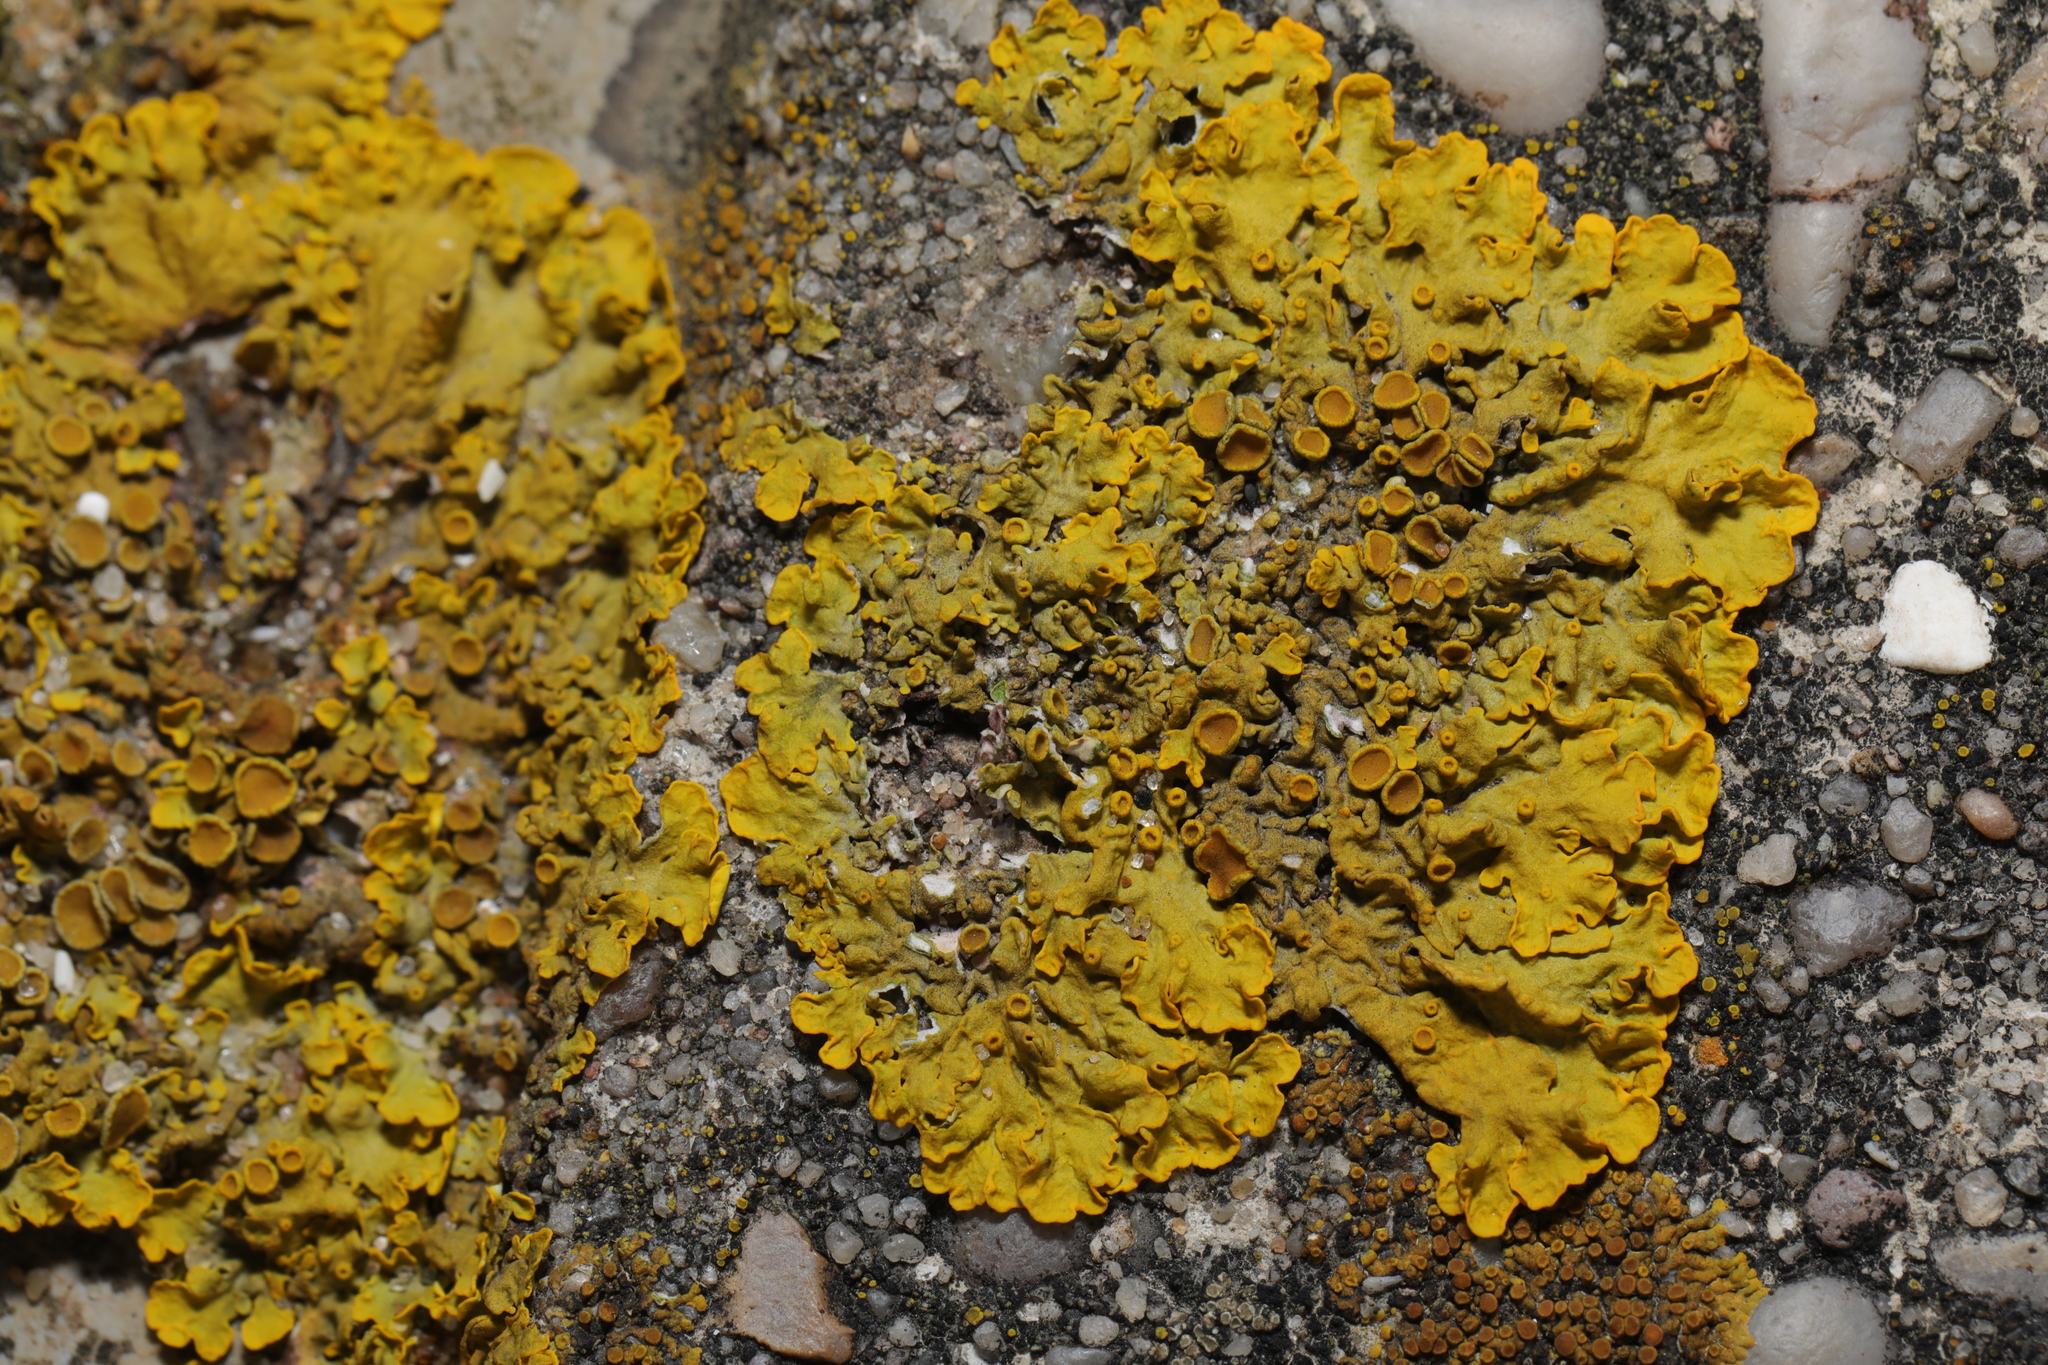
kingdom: Fungi
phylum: Ascomycota
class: Lecanoromycetes
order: Teloschistales
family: Teloschistaceae
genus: Xanthoria
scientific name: Xanthoria parietina
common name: Common orange lichen
